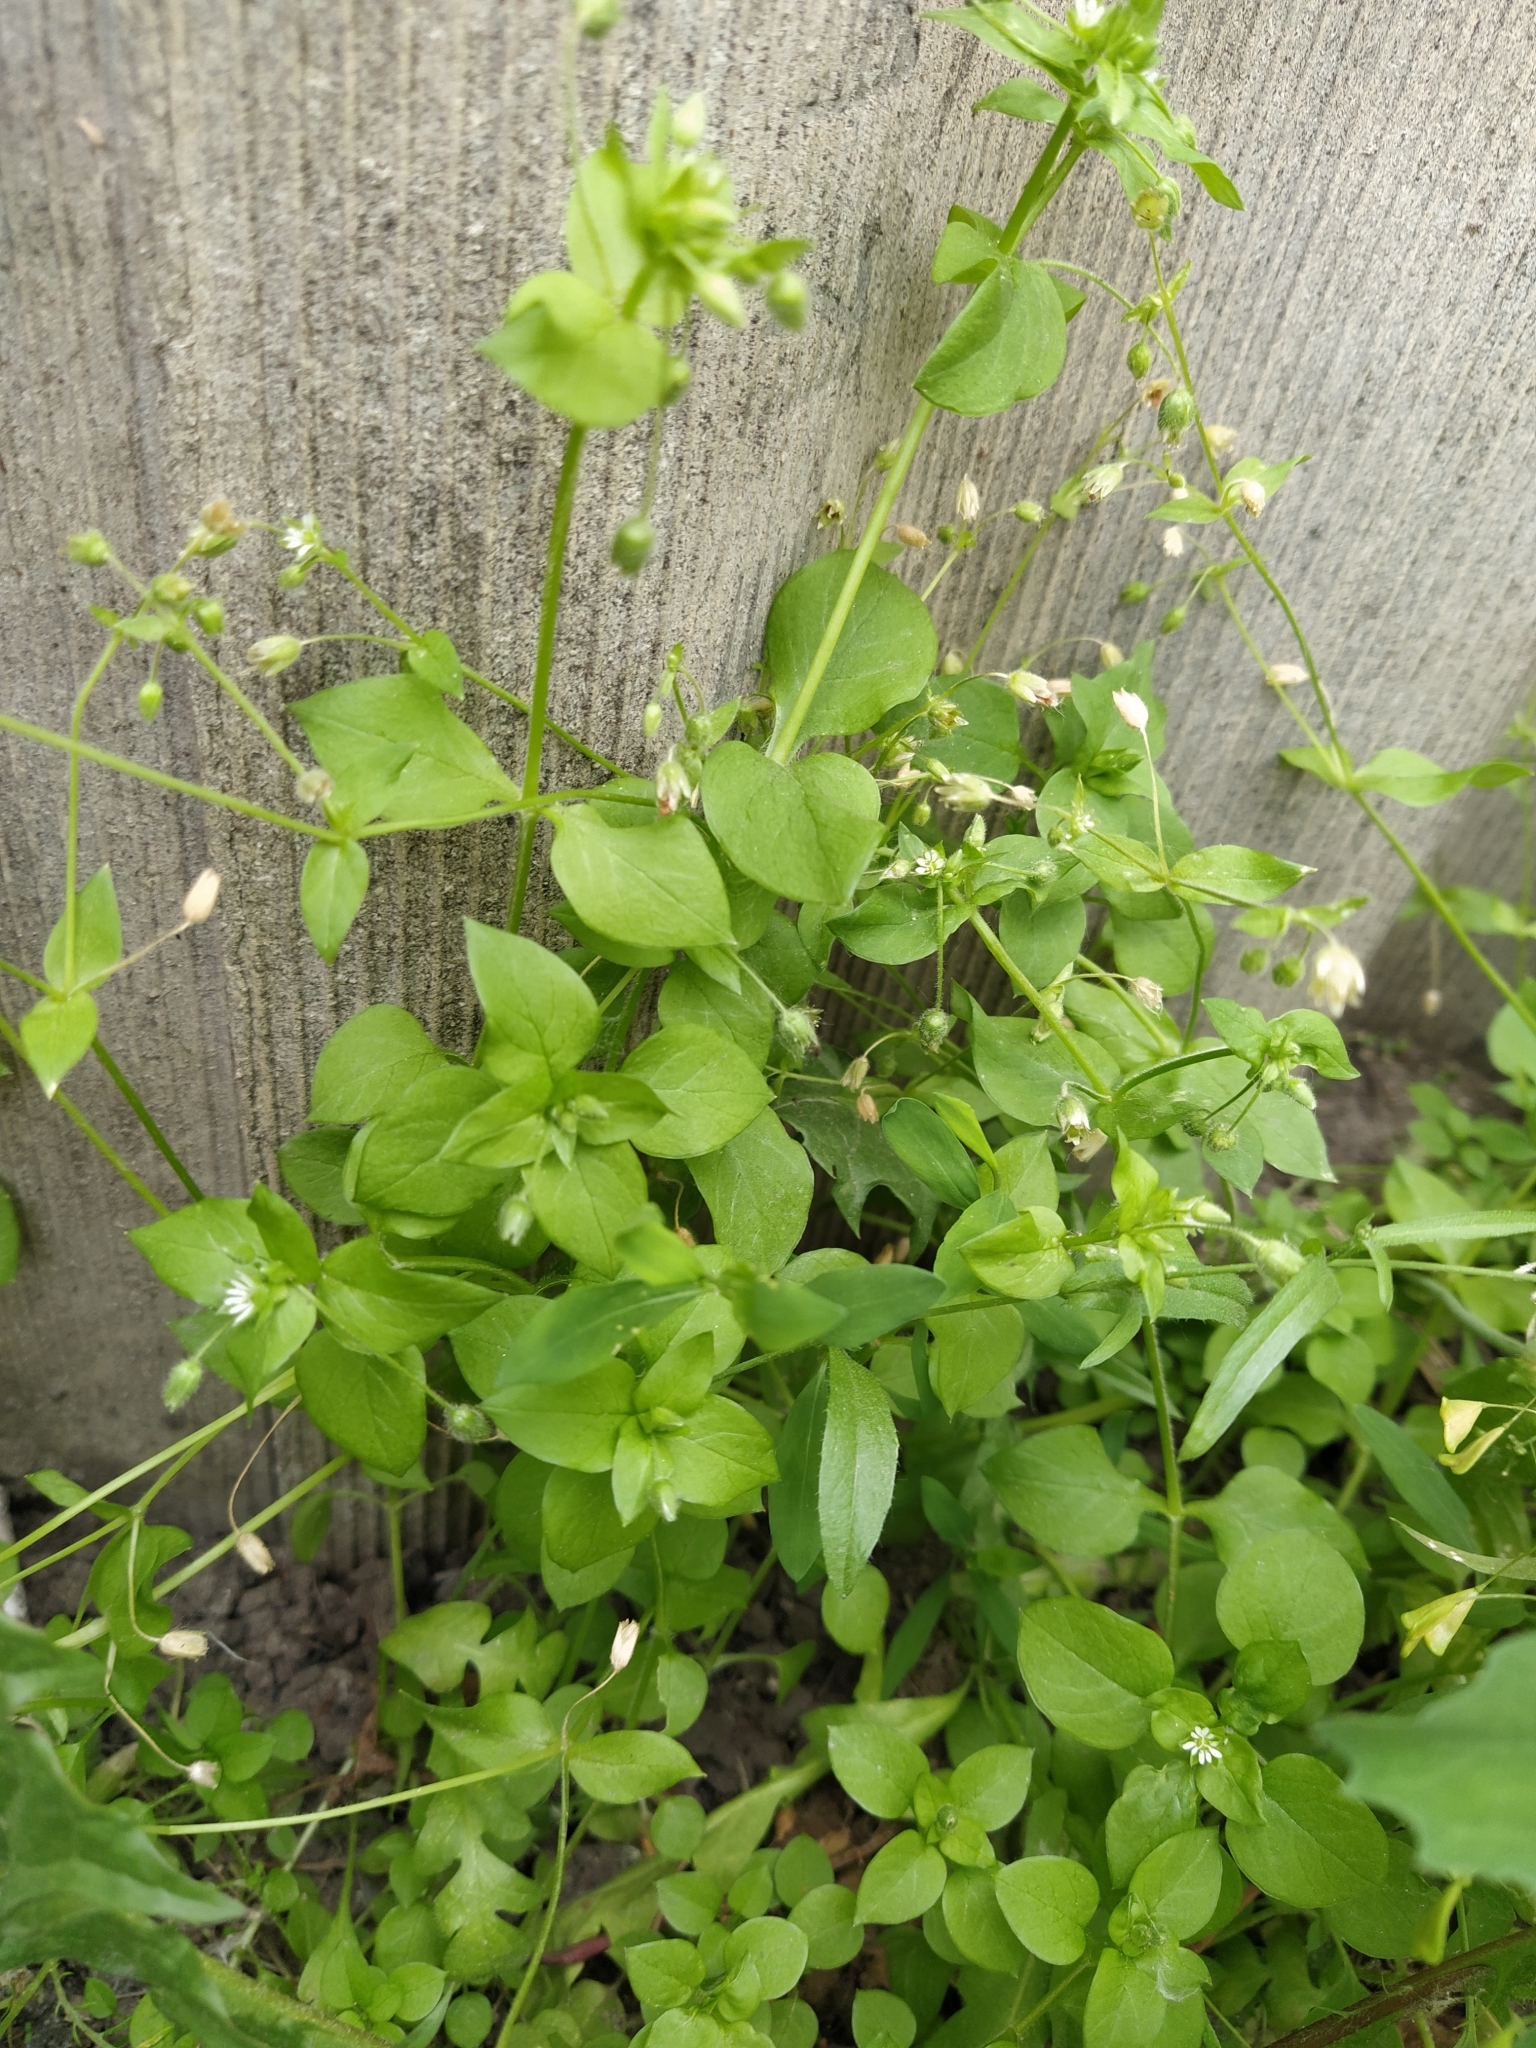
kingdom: Plantae
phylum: Tracheophyta
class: Magnoliopsida
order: Caryophyllales
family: Caryophyllaceae
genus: Stellaria
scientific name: Stellaria media
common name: Common chickweed
